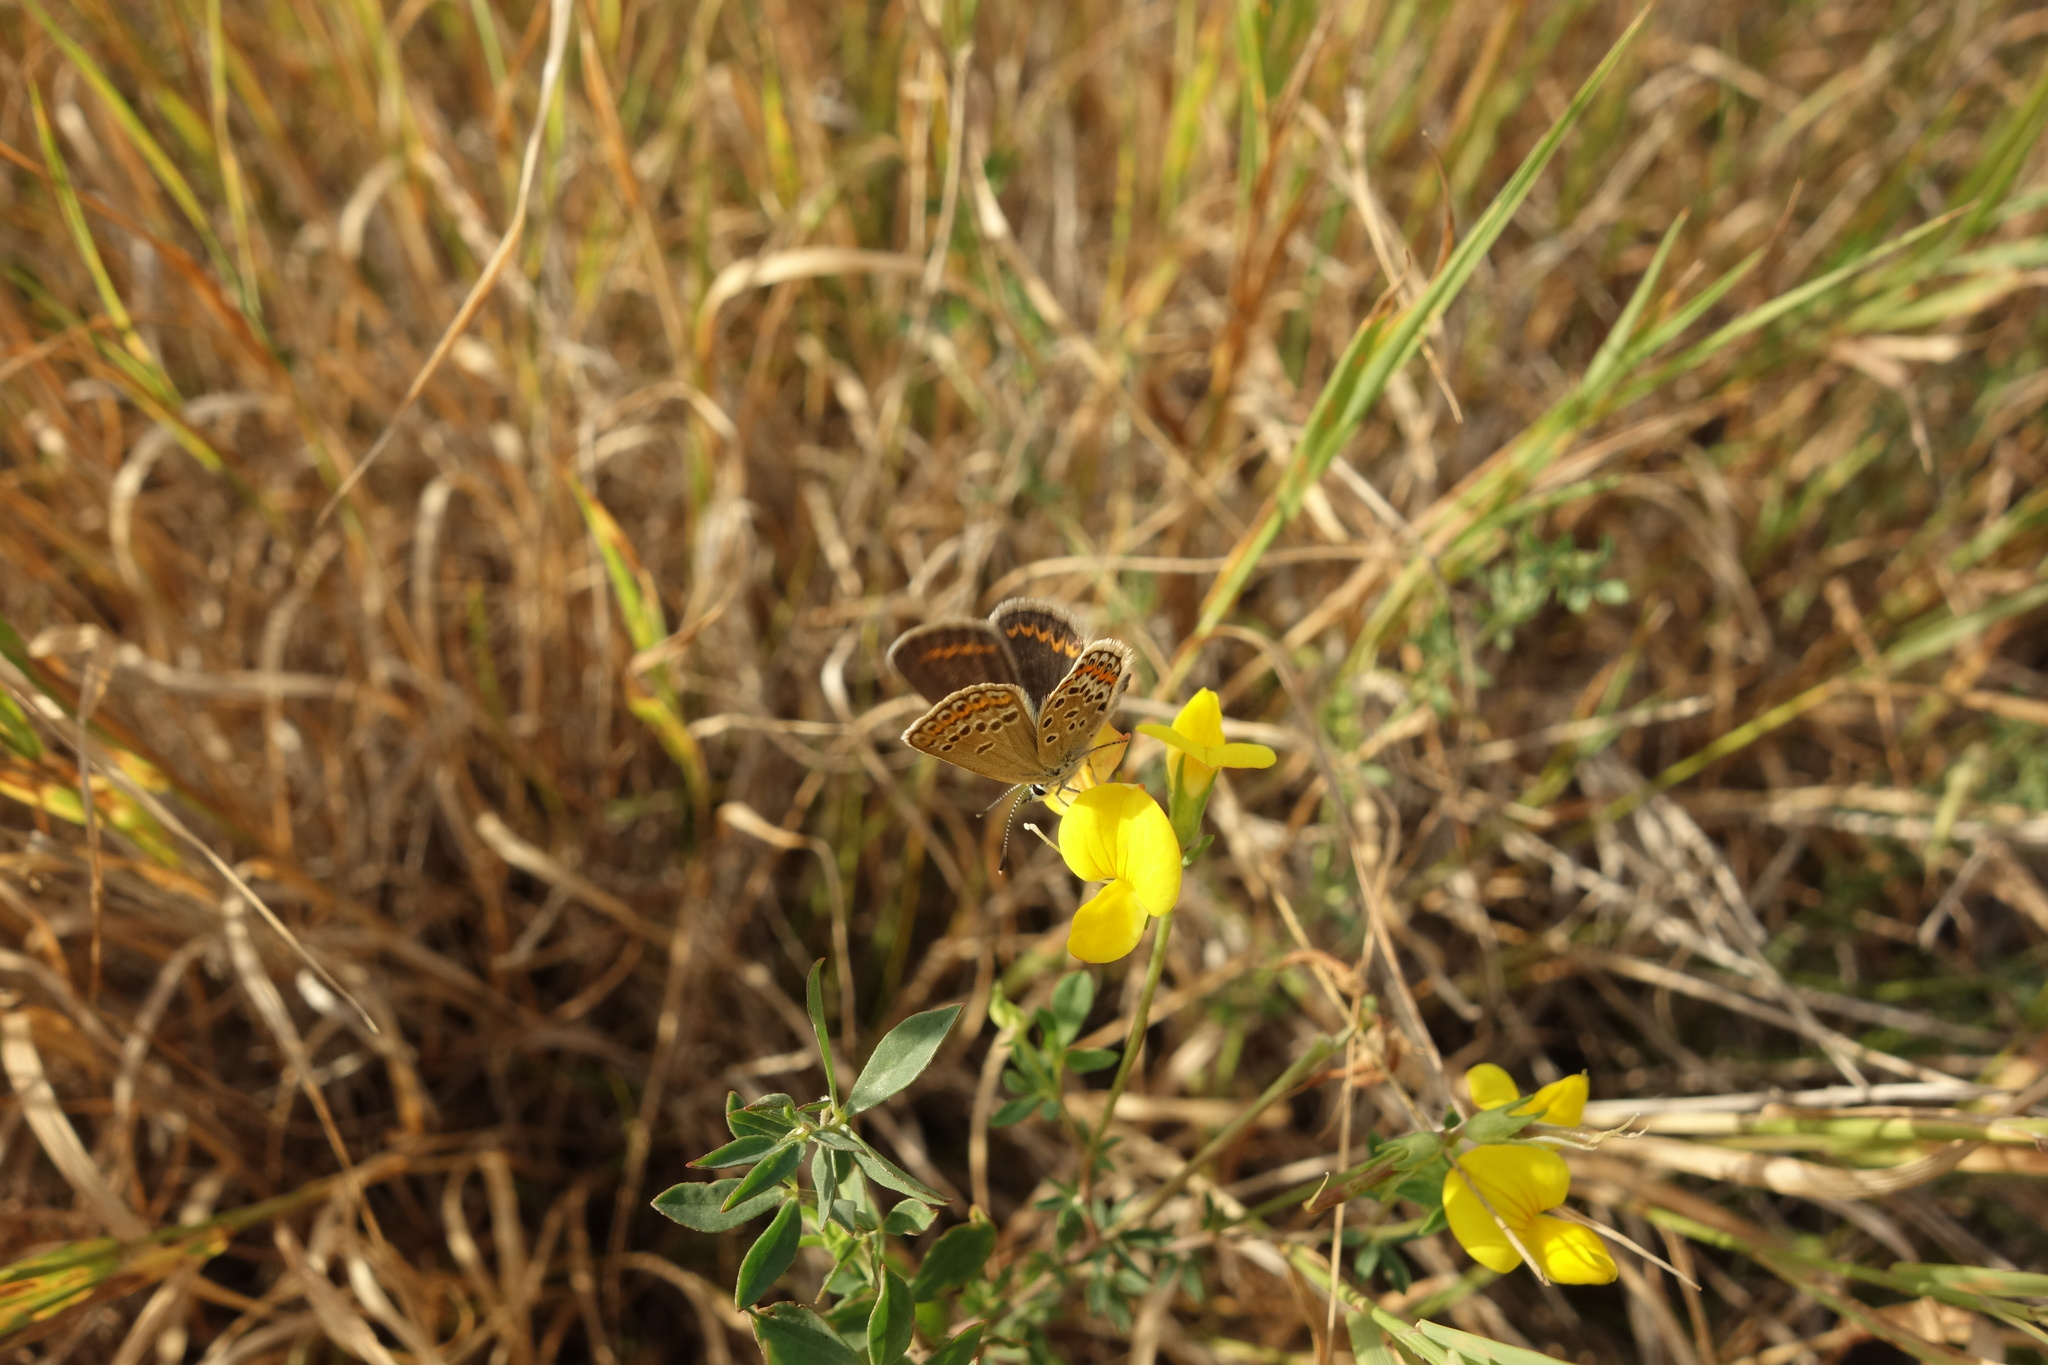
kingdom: Animalia
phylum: Arthropoda
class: Insecta
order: Lepidoptera
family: Lycaenidae
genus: Plebejus
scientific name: Plebejus argus
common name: Silver-studded blue
